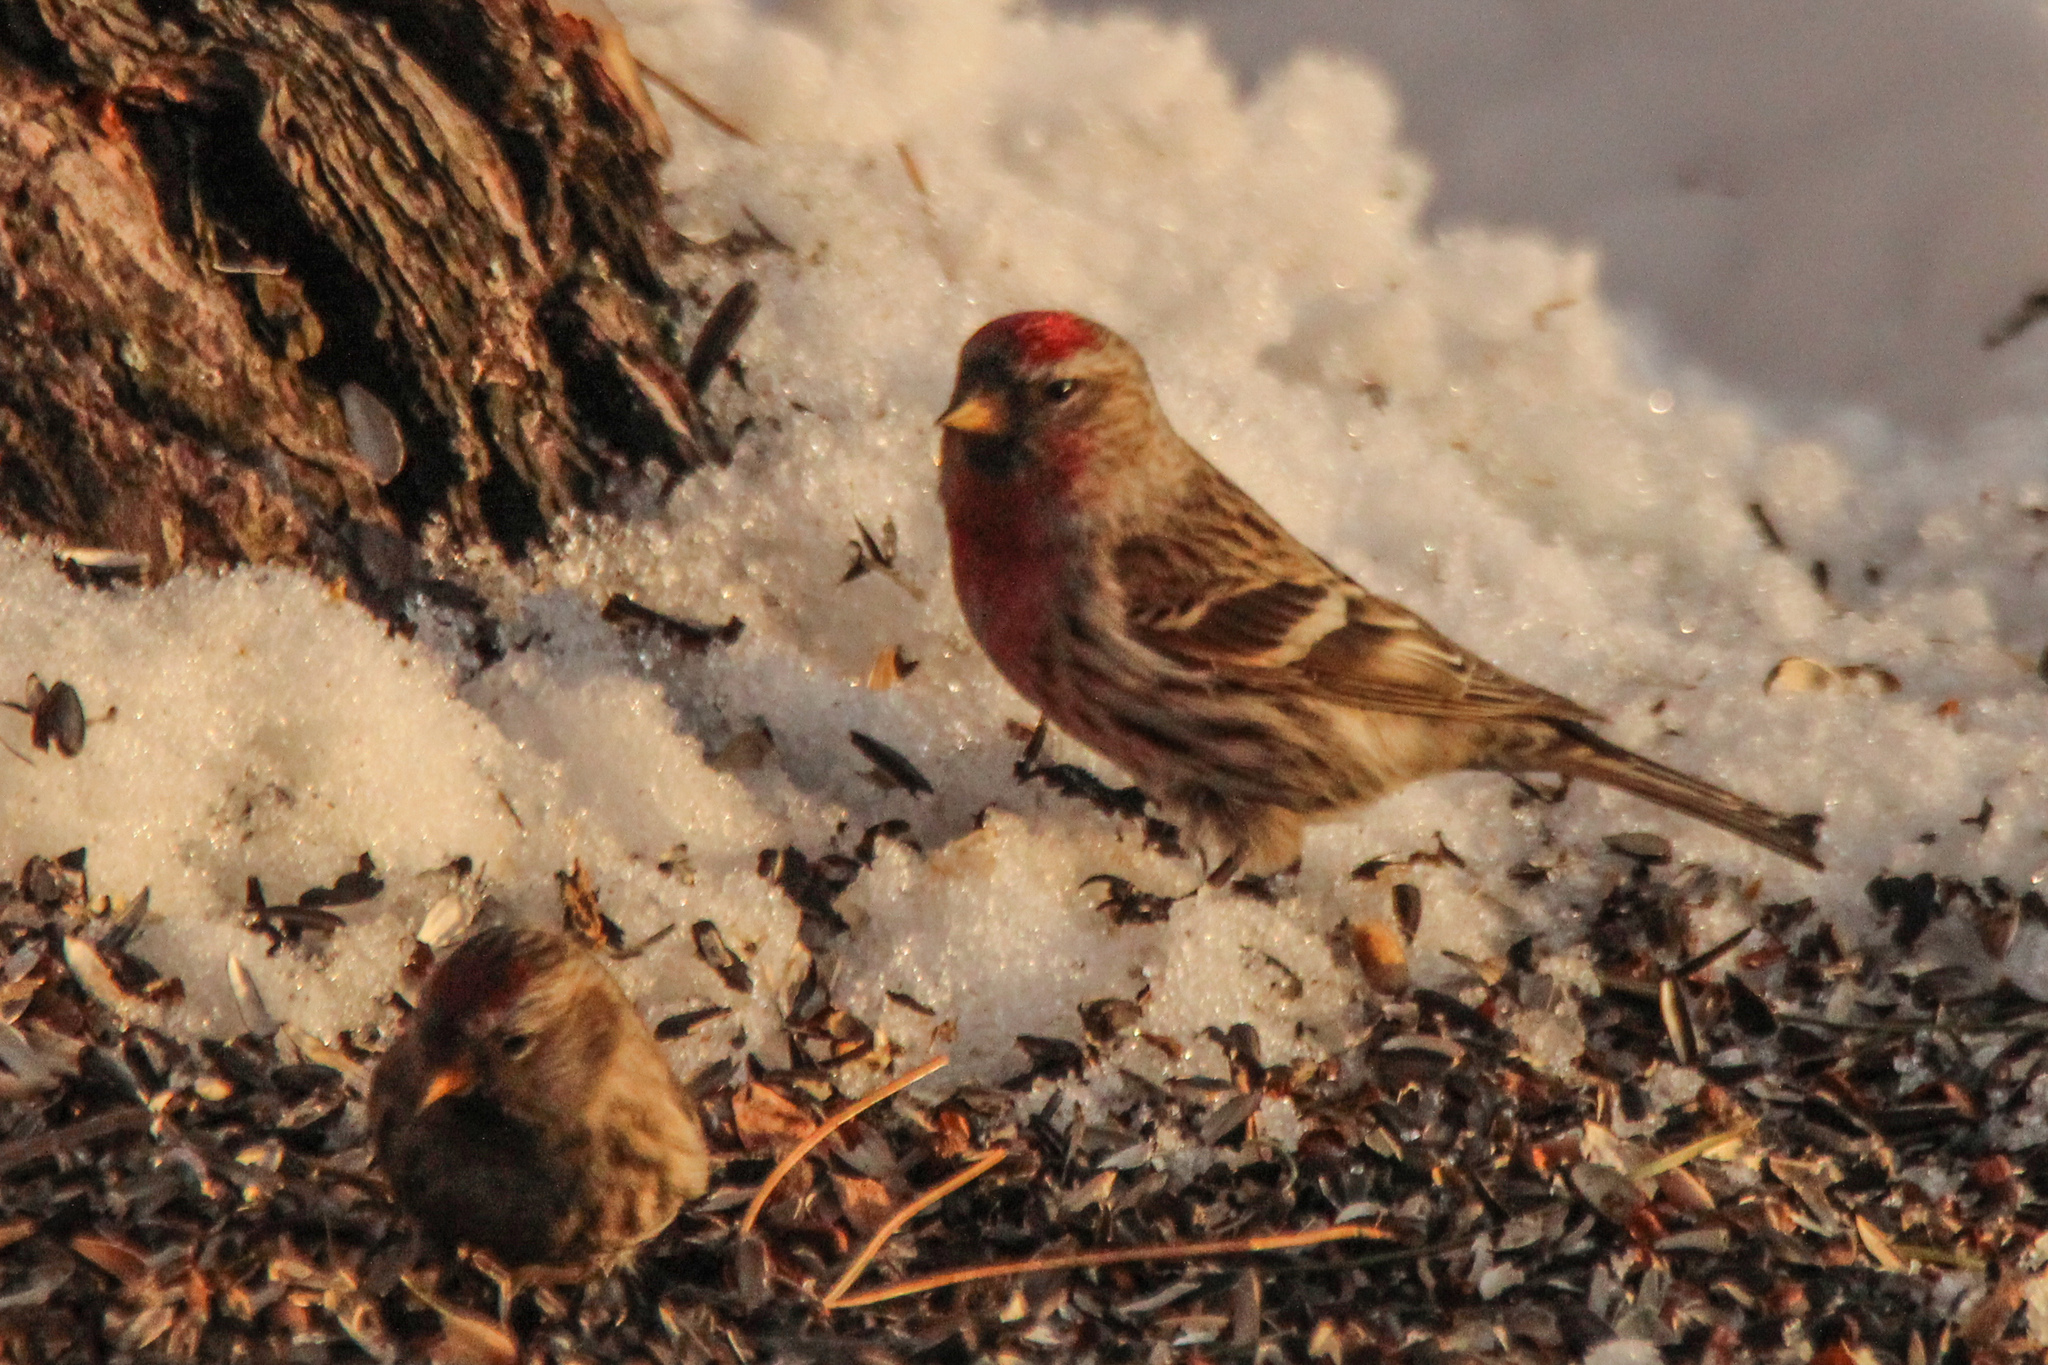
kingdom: Animalia
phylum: Chordata
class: Aves
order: Passeriformes
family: Fringillidae
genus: Acanthis
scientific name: Acanthis flammea
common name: Common redpoll
